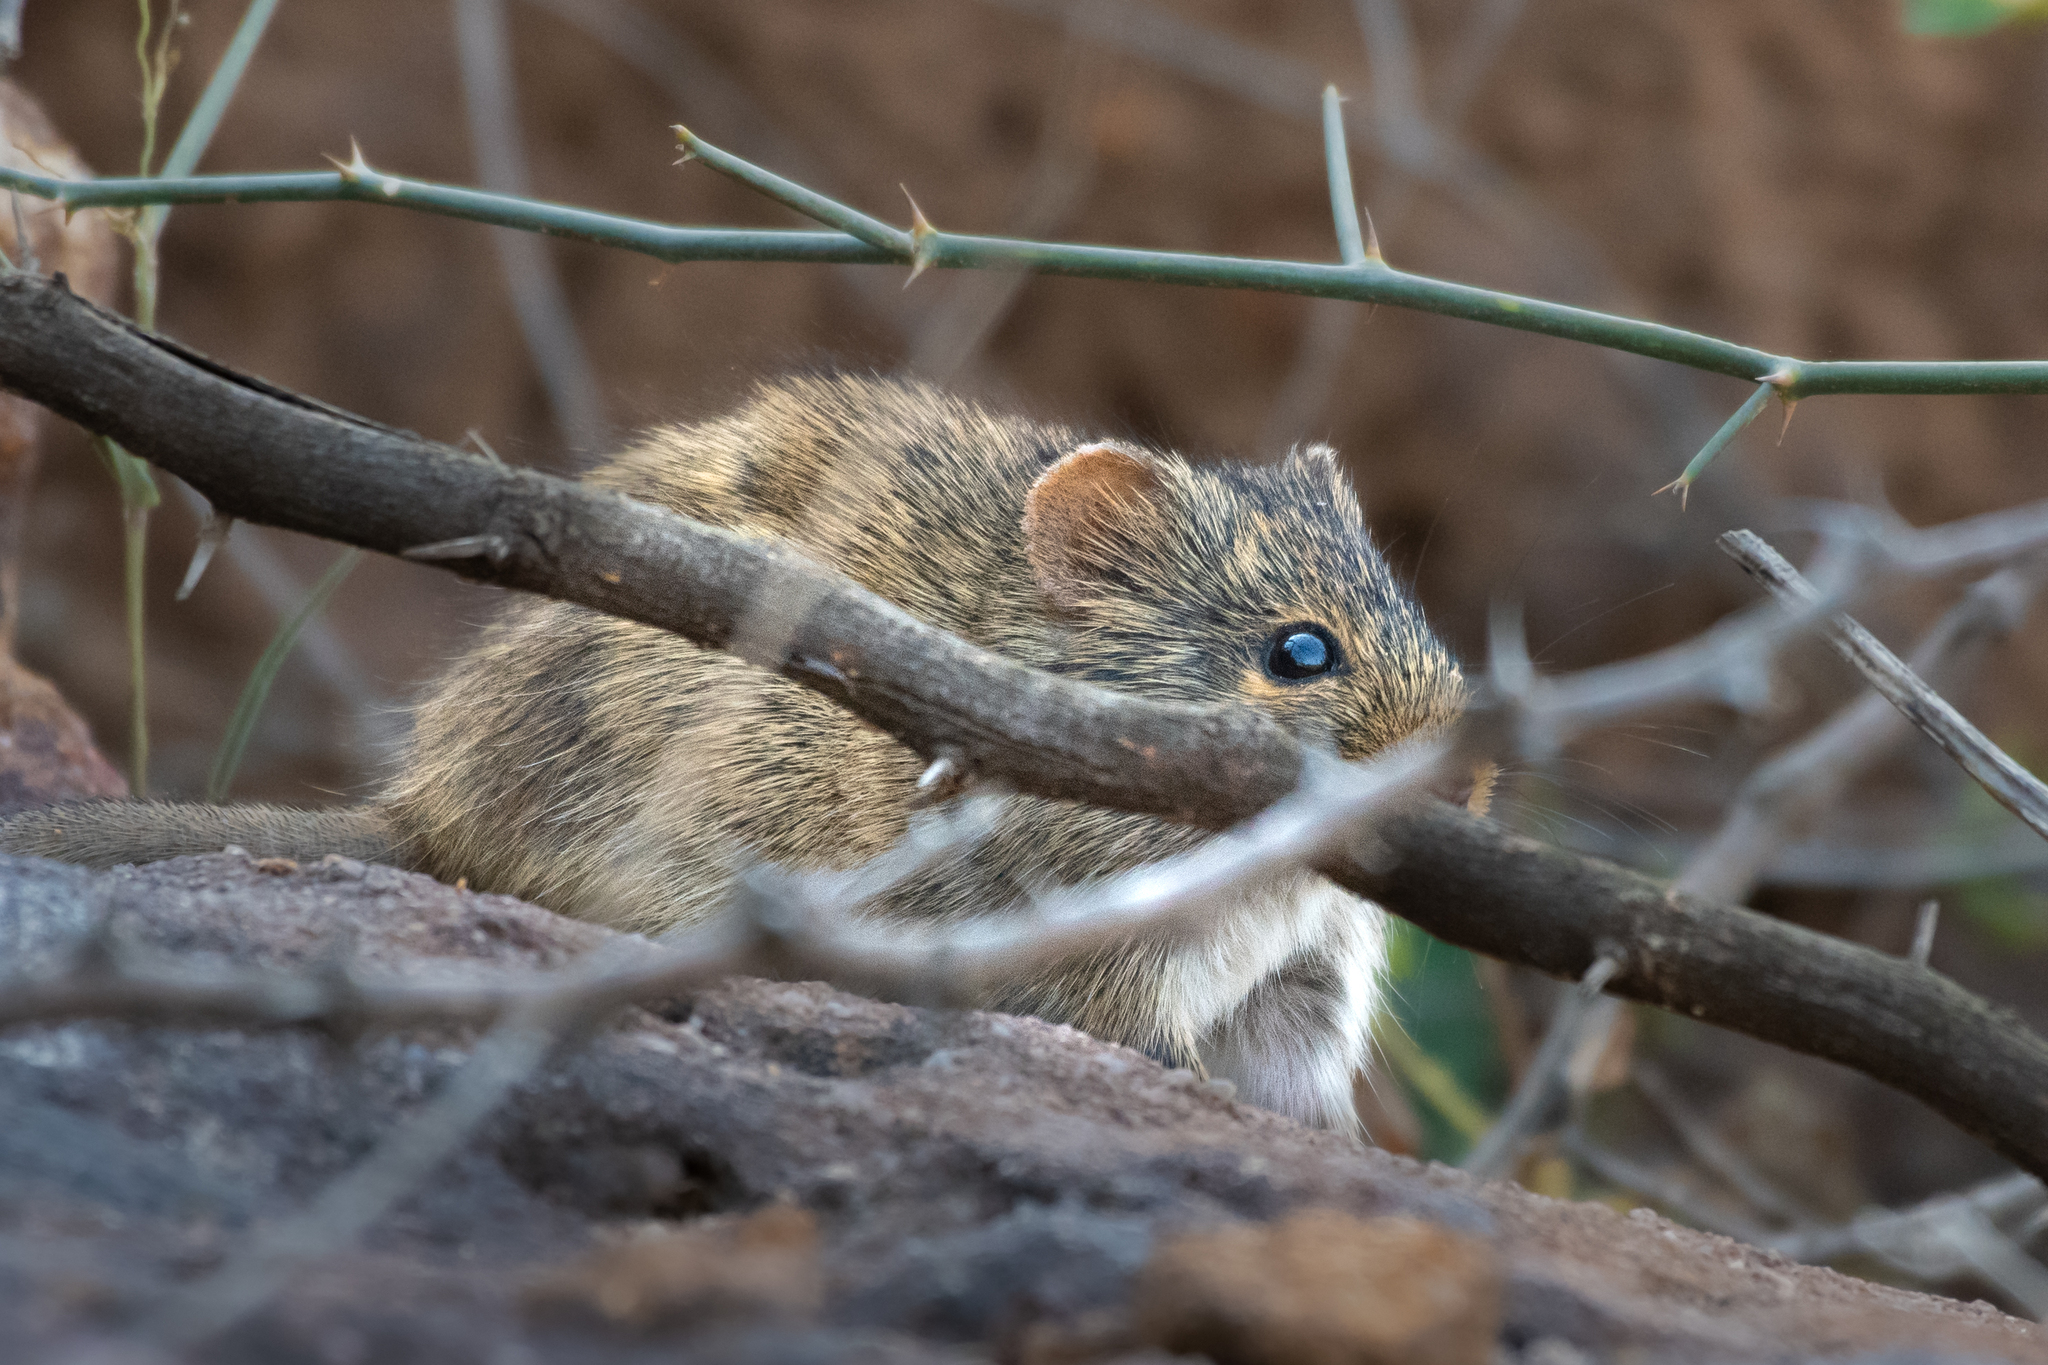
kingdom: Animalia
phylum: Chordata
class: Mammalia
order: Rodentia
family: Muridae
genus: Golunda
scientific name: Golunda ellioti
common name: Indian bush rat
